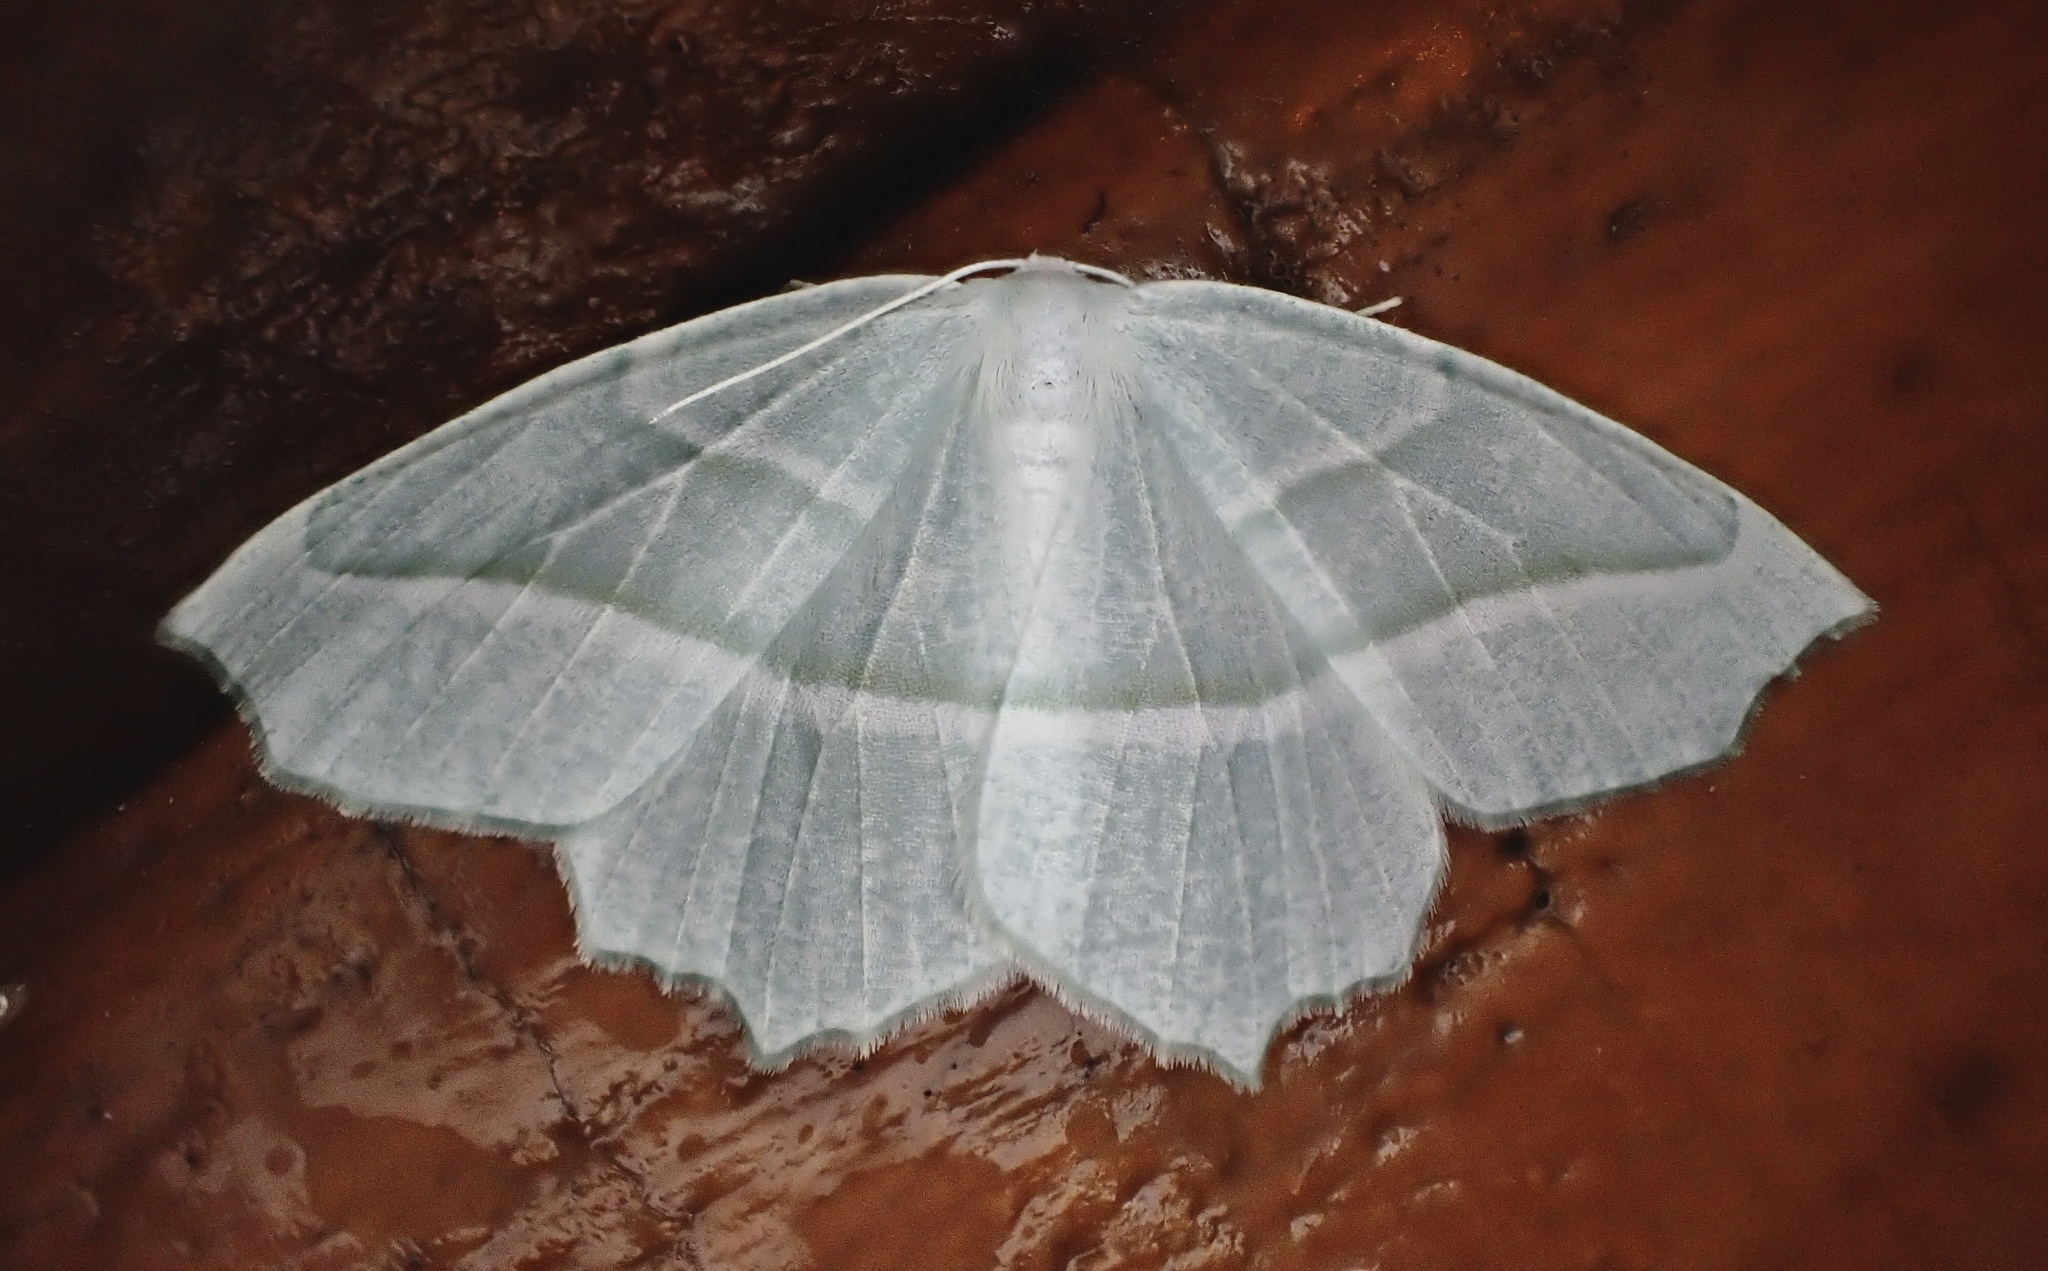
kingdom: Animalia
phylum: Arthropoda
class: Insecta
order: Lepidoptera
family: Geometridae
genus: Campaea
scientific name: Campaea perlata
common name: Fringed looper
